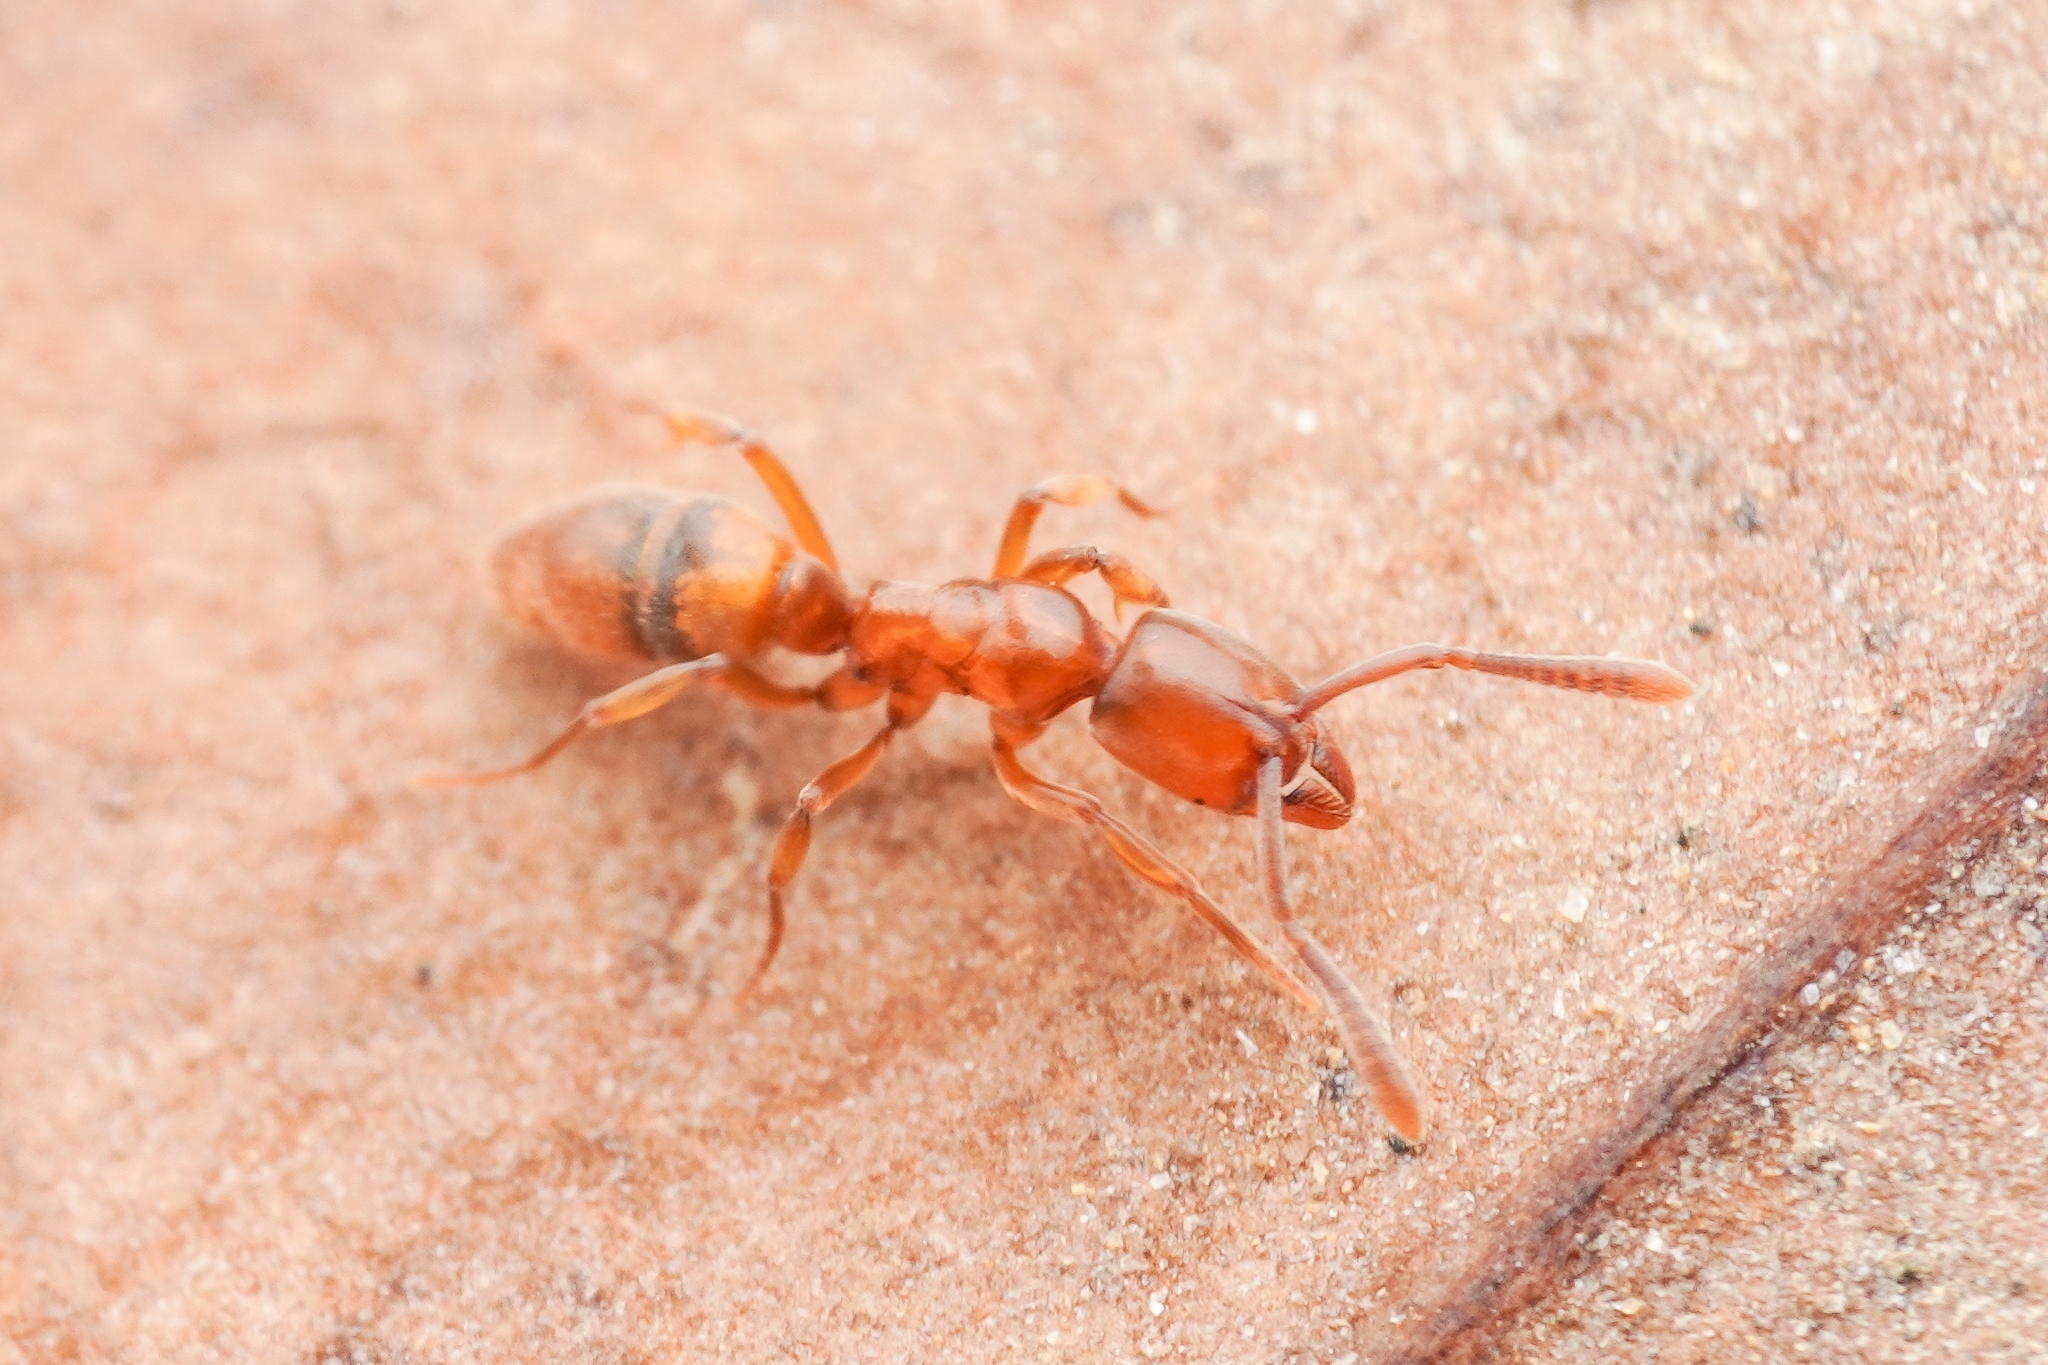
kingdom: Animalia
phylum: Arthropoda
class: Insecta
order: Hymenoptera
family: Formicidae
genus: Hypoponera
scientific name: Hypoponera nippona
